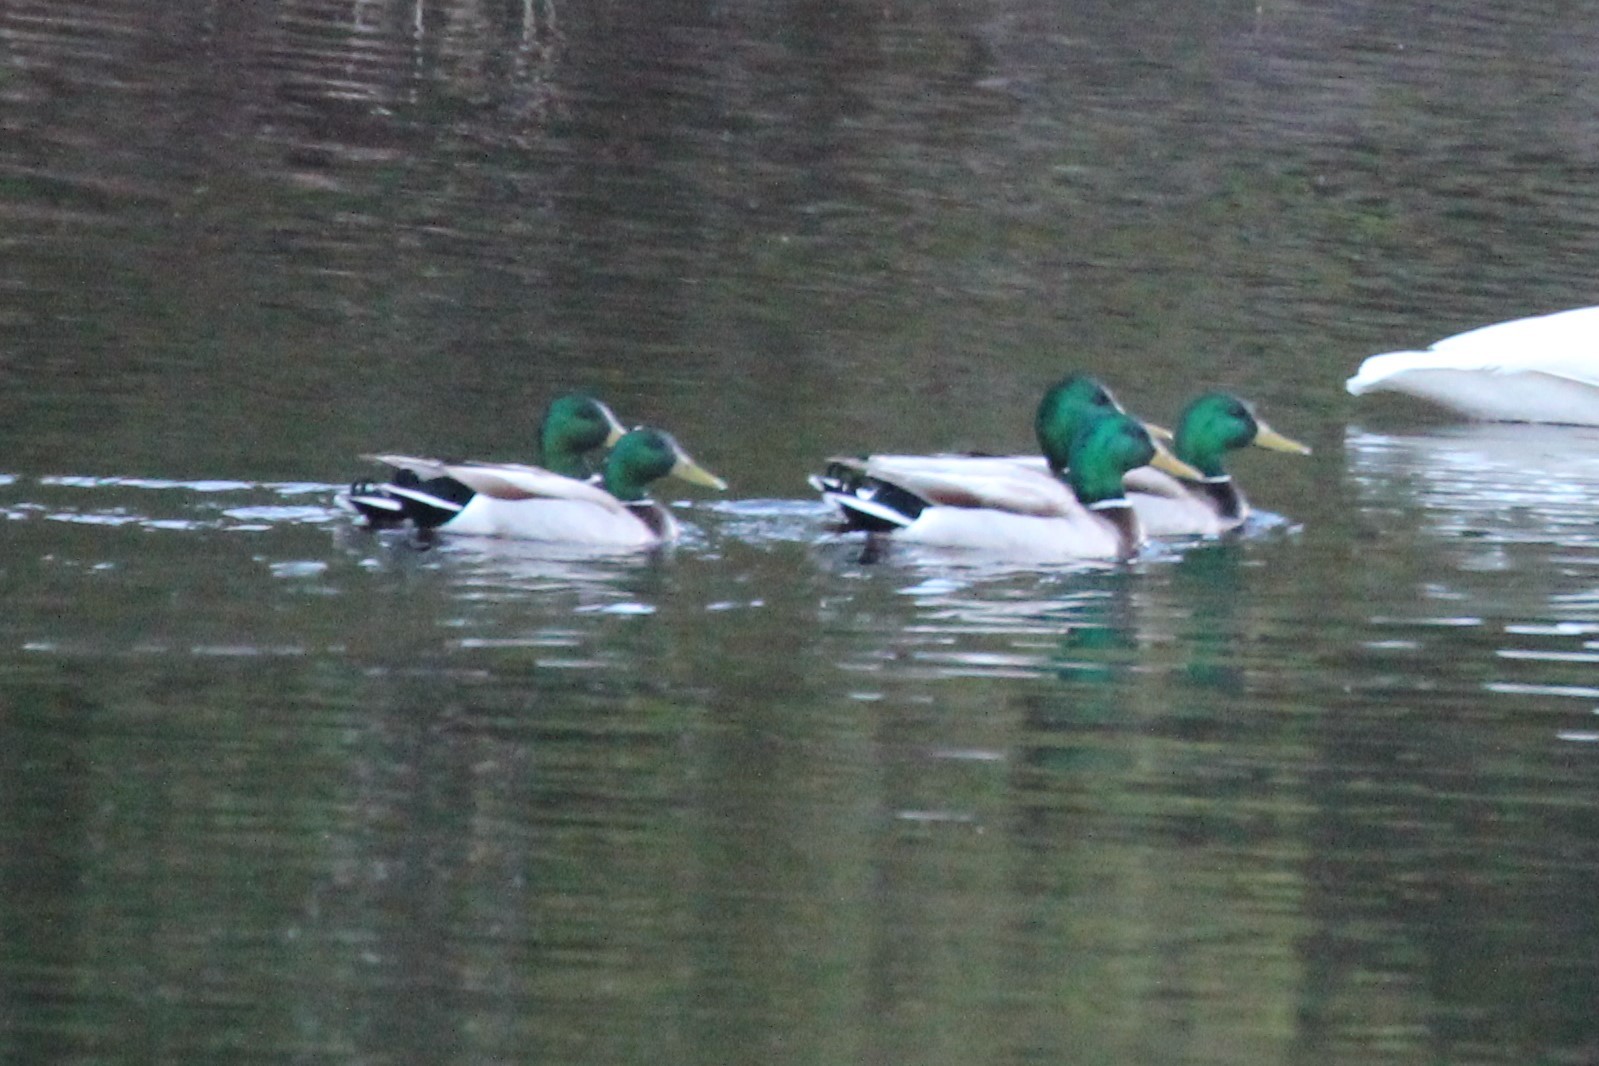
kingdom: Animalia
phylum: Chordata
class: Aves
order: Anseriformes
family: Anatidae
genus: Anas
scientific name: Anas platyrhynchos
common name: Mallard
